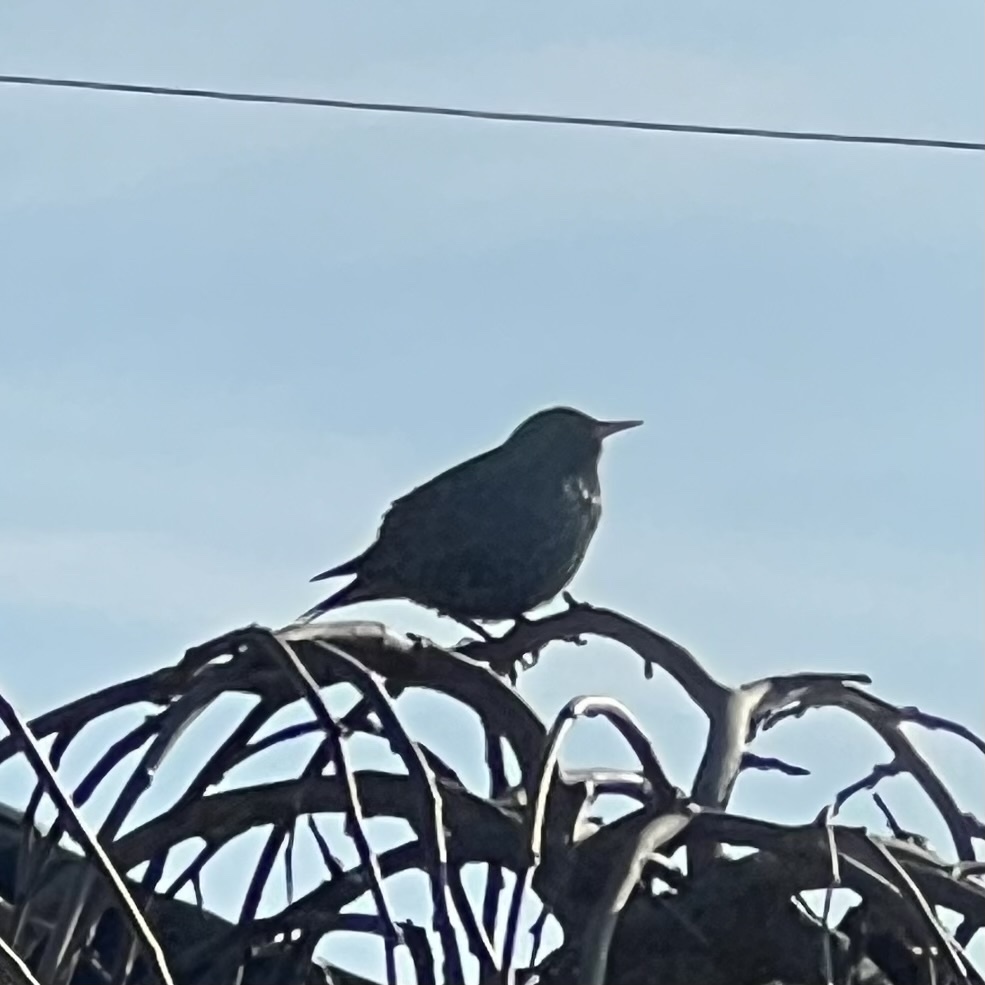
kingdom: Animalia
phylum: Chordata
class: Aves
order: Passeriformes
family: Sturnidae
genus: Sturnus
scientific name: Sturnus vulgaris
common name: Common starling
